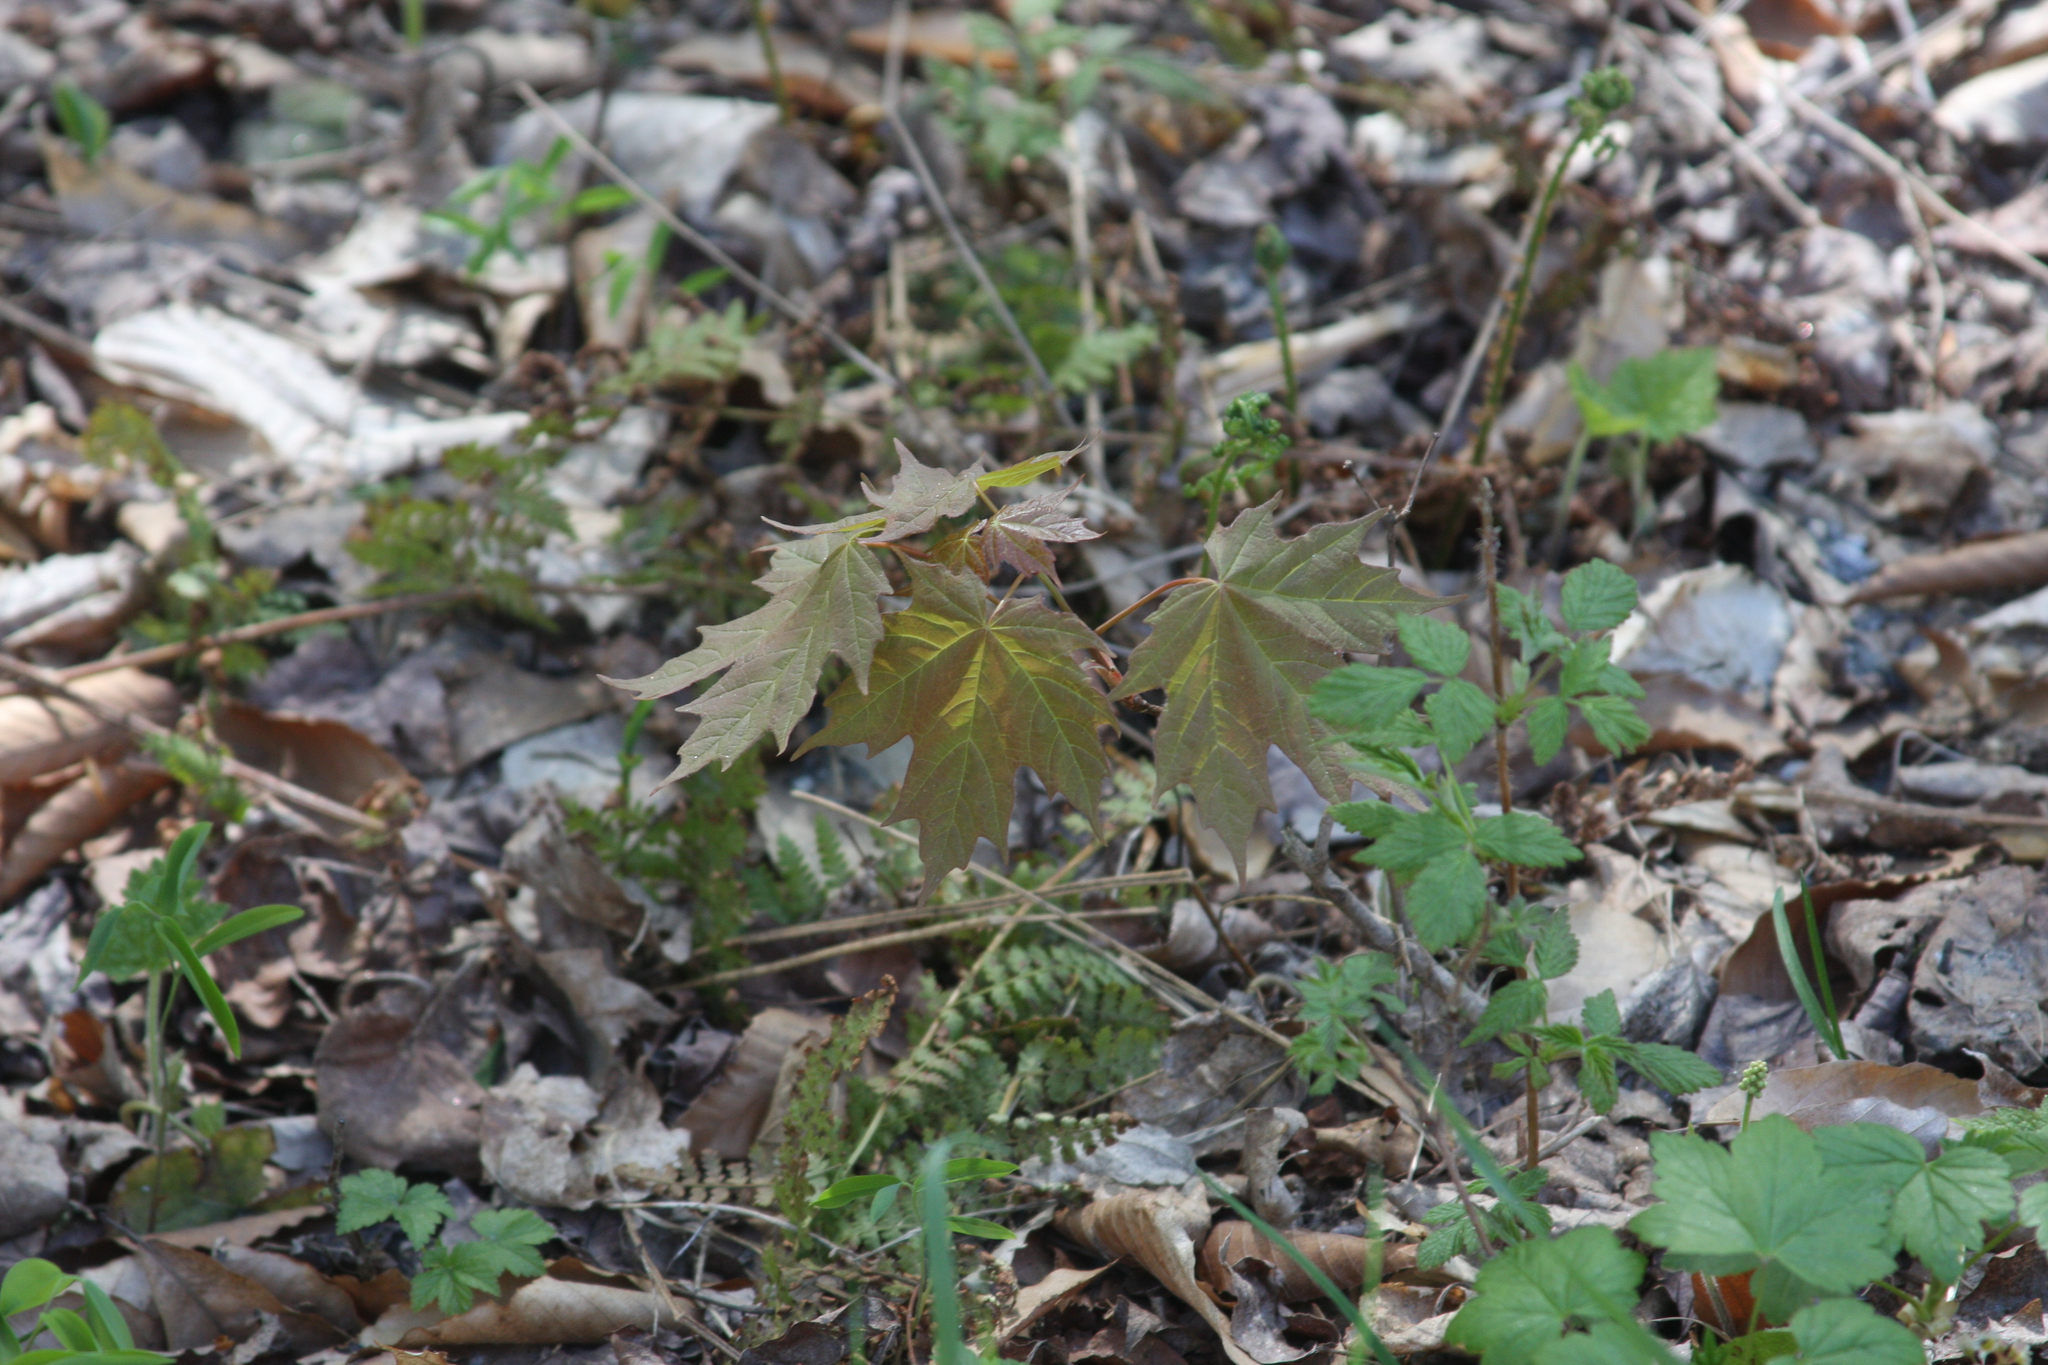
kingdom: Plantae
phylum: Tracheophyta
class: Magnoliopsida
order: Sapindales
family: Sapindaceae
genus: Acer
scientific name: Acer saccharum
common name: Sugar maple
